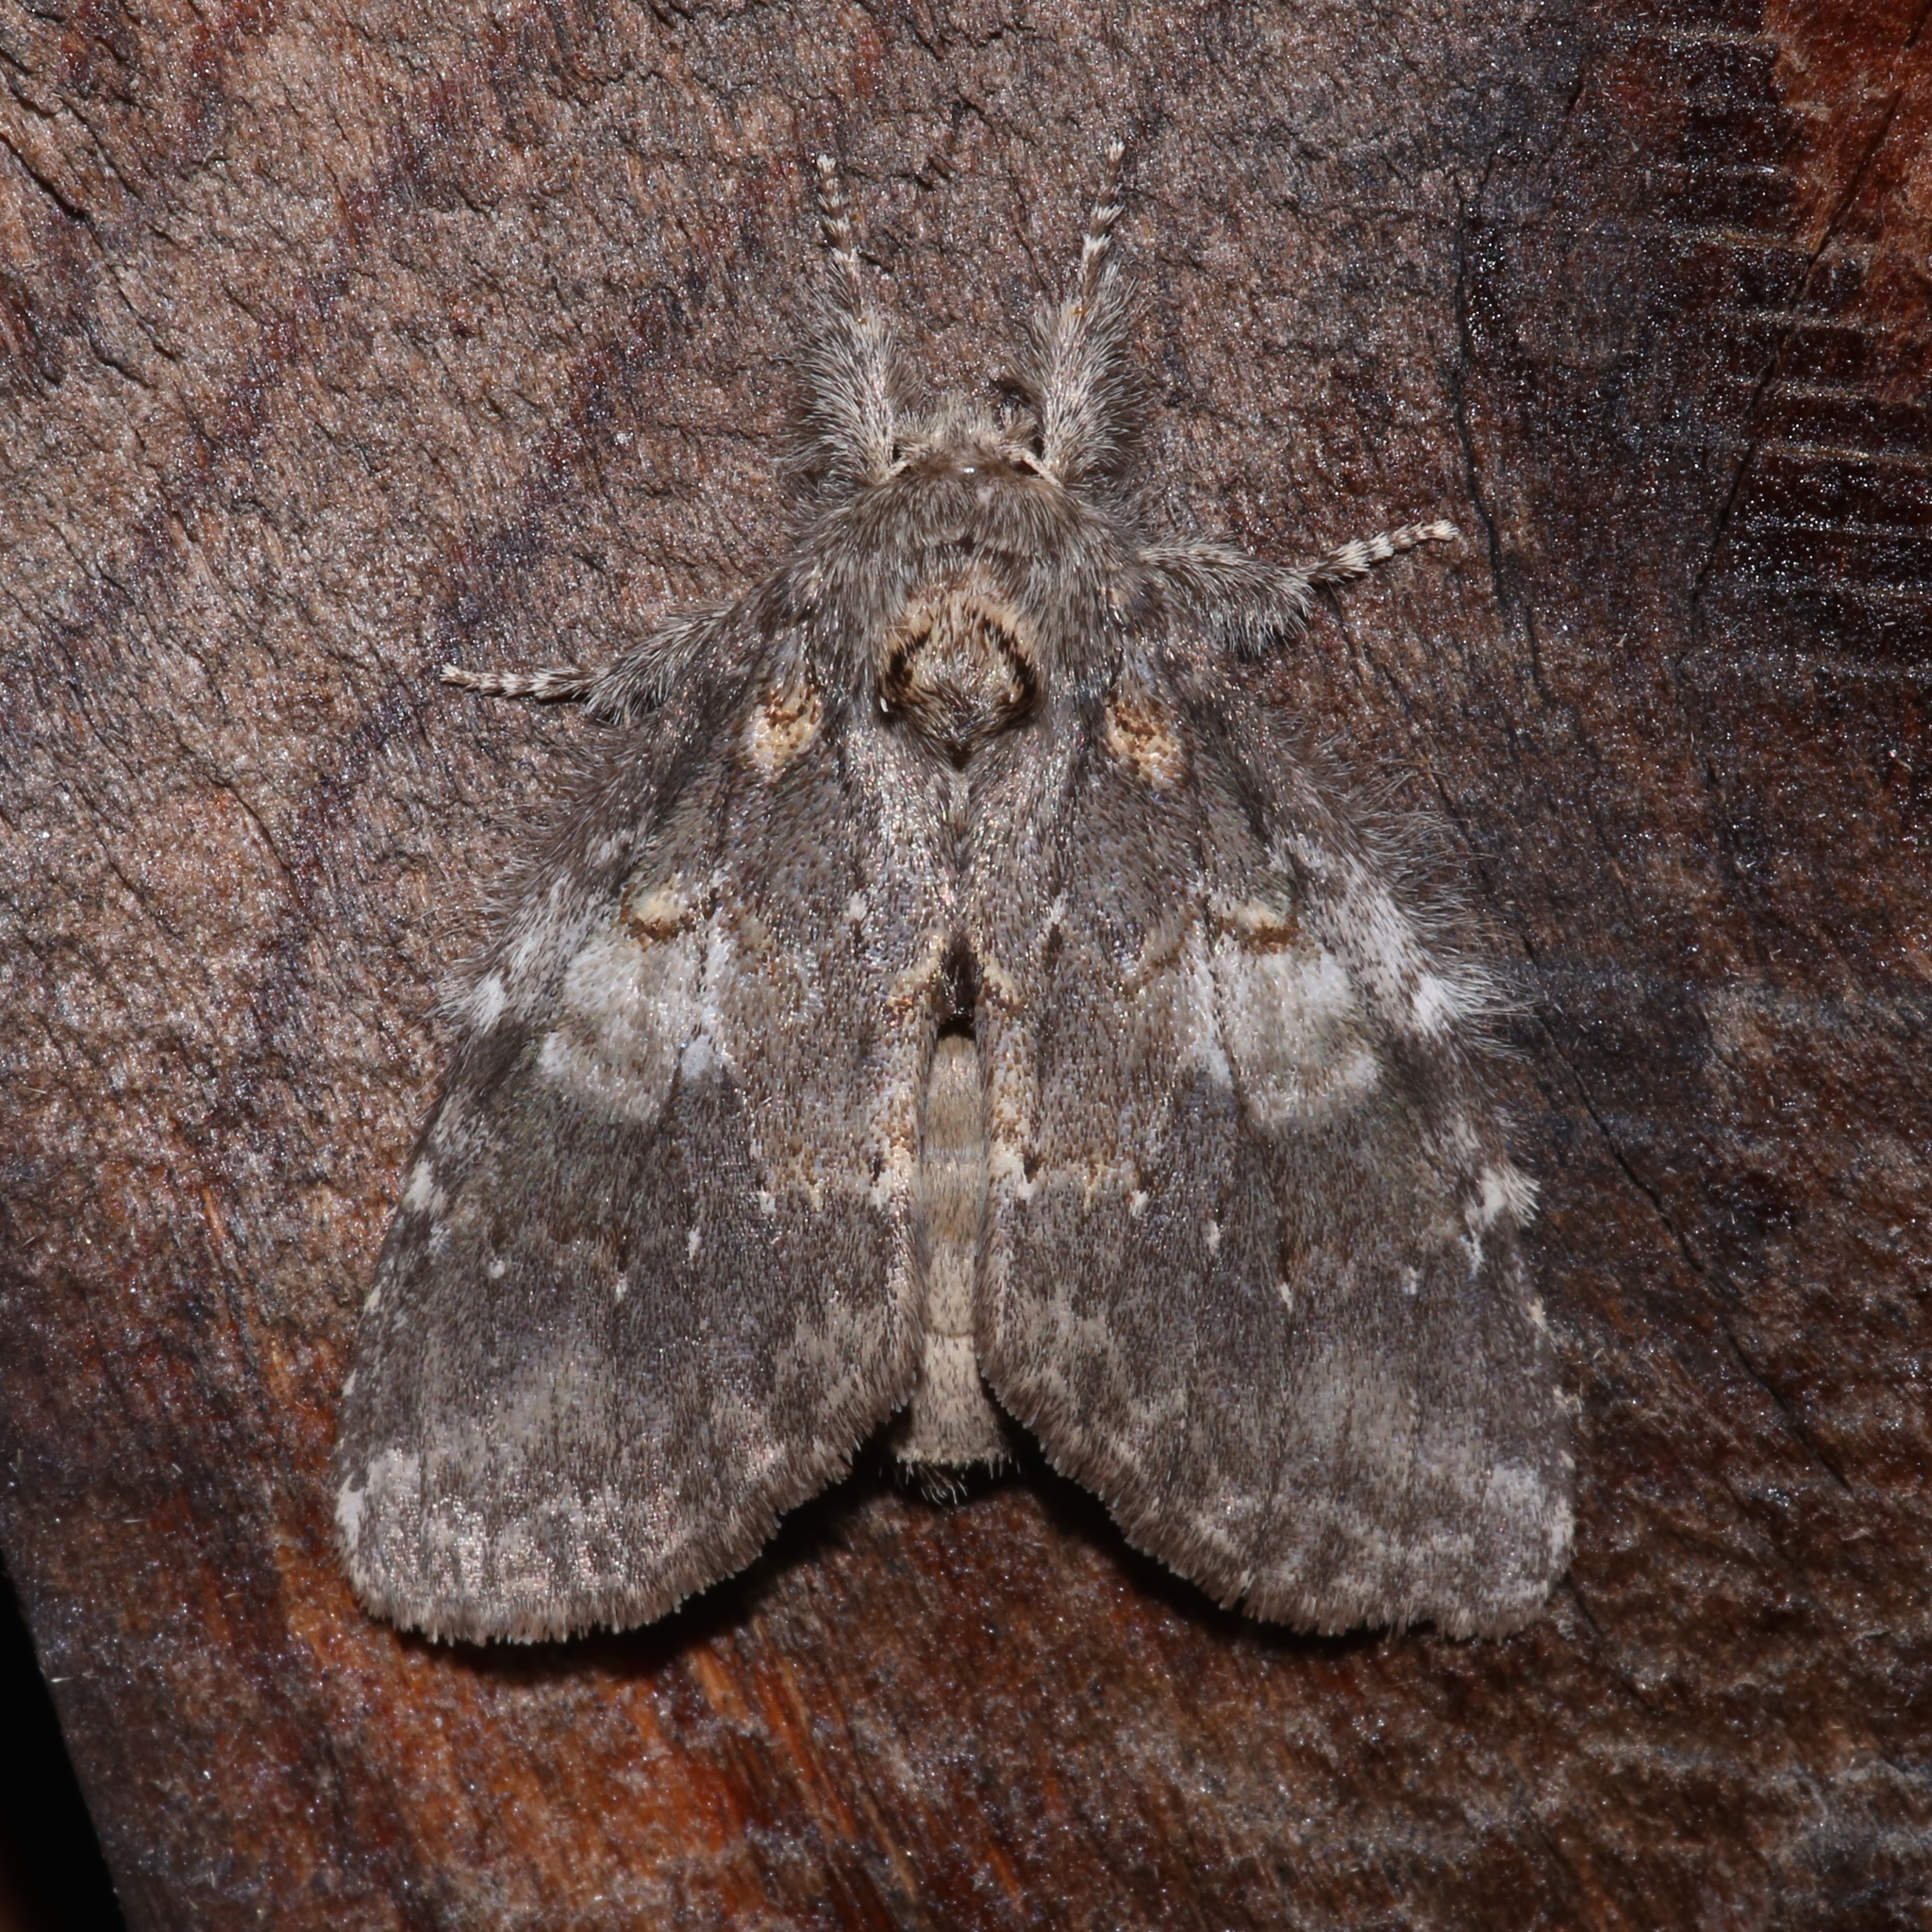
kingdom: Animalia
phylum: Arthropoda
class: Insecta
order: Lepidoptera
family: Notodontidae
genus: Peridea
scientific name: Peridea angulosa
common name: Angulose prominent
